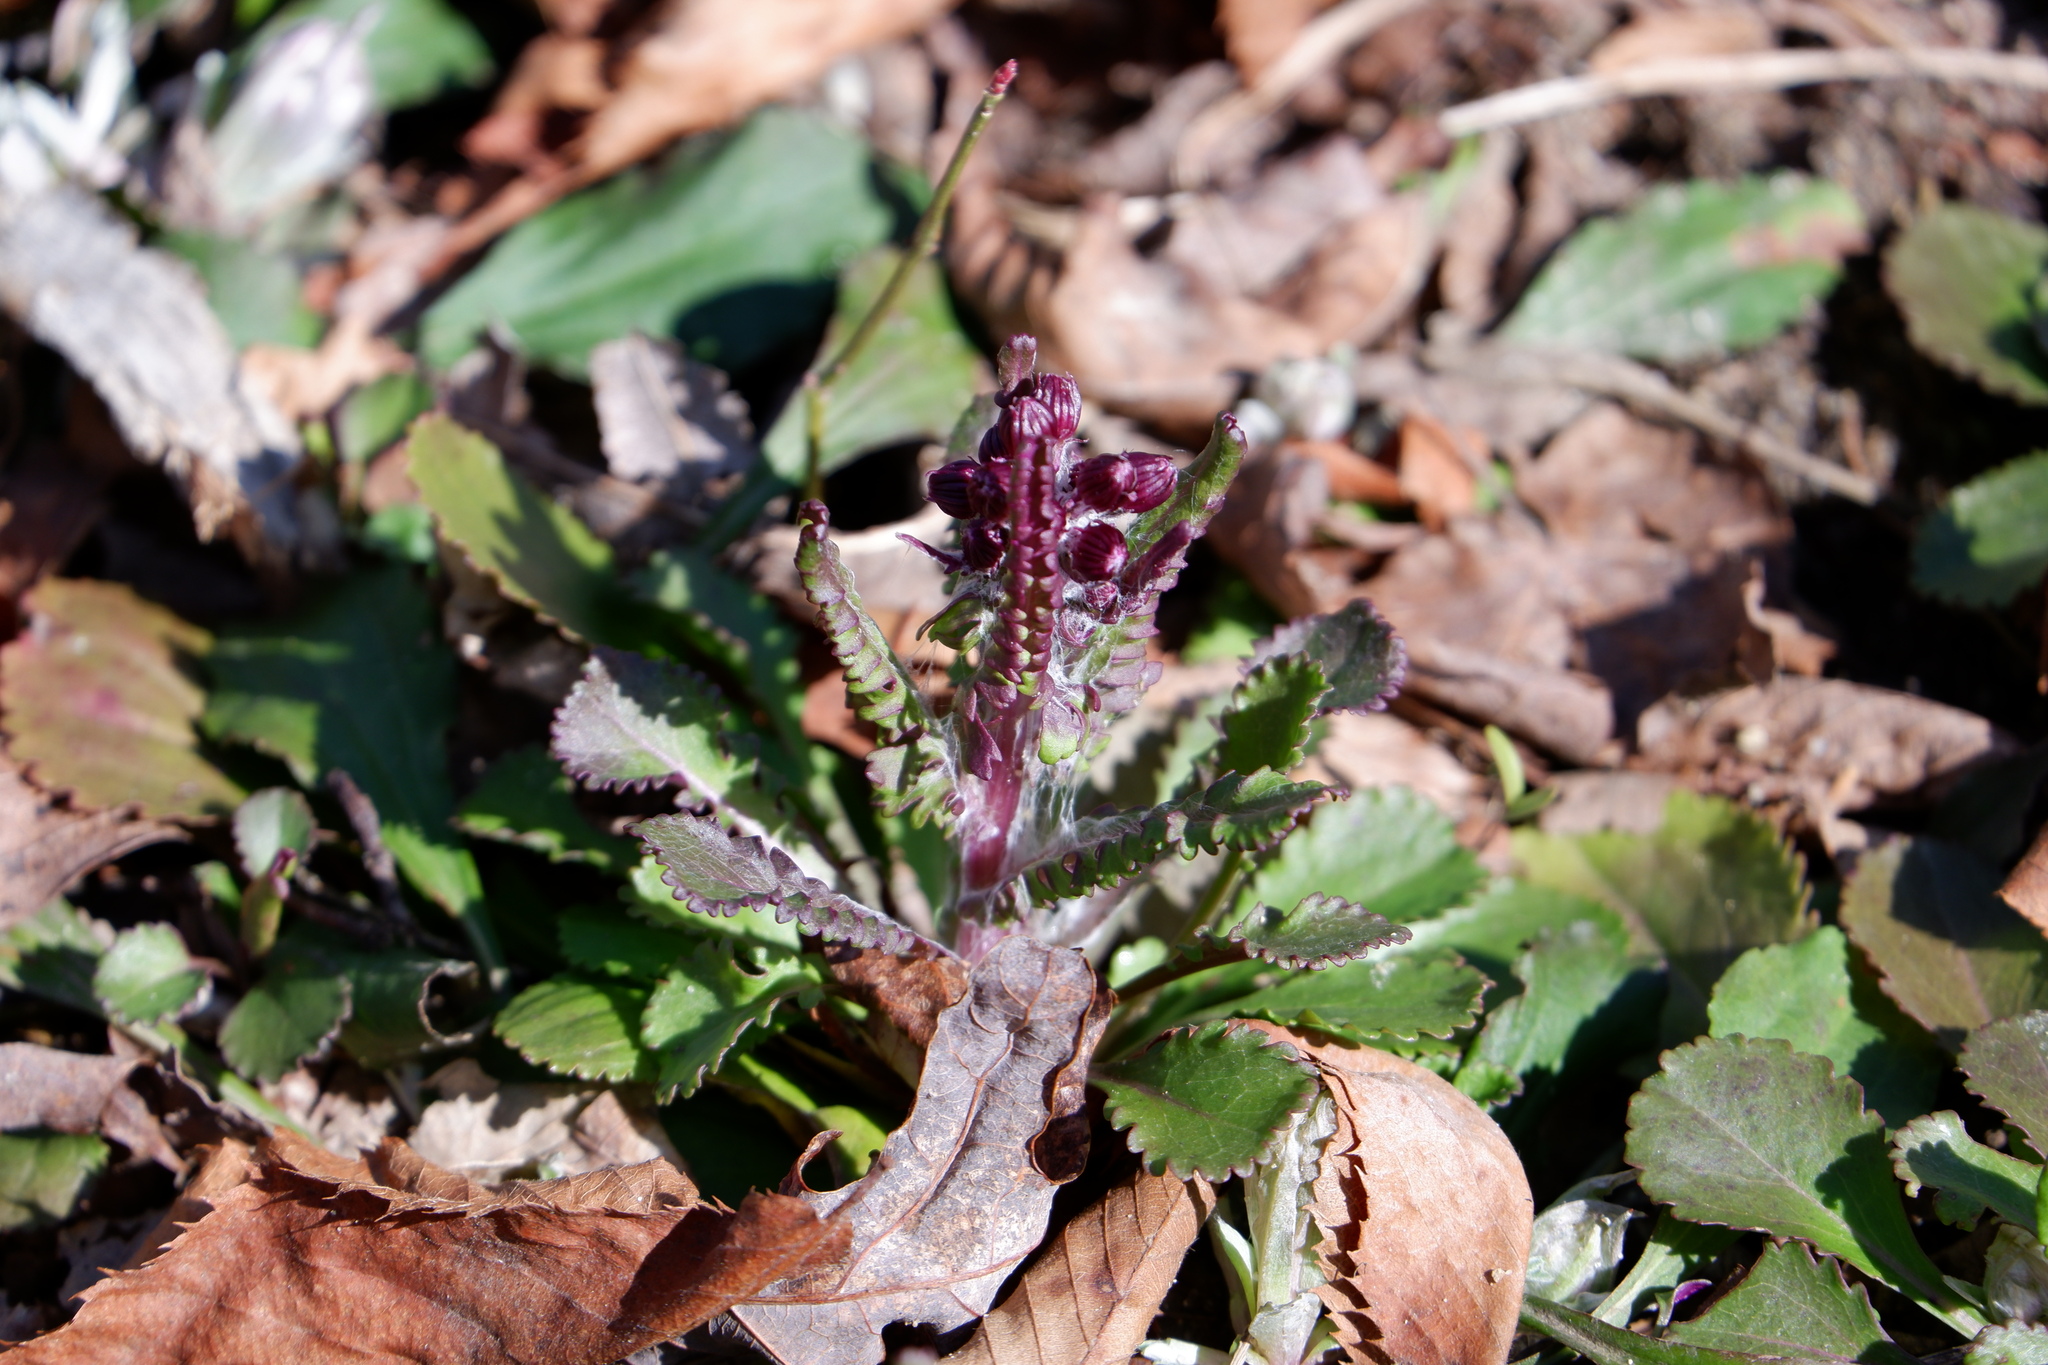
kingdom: Plantae
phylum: Tracheophyta
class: Magnoliopsida
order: Asterales
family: Asteraceae
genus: Packera
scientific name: Packera obovata
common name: Round-leaf ragwort
